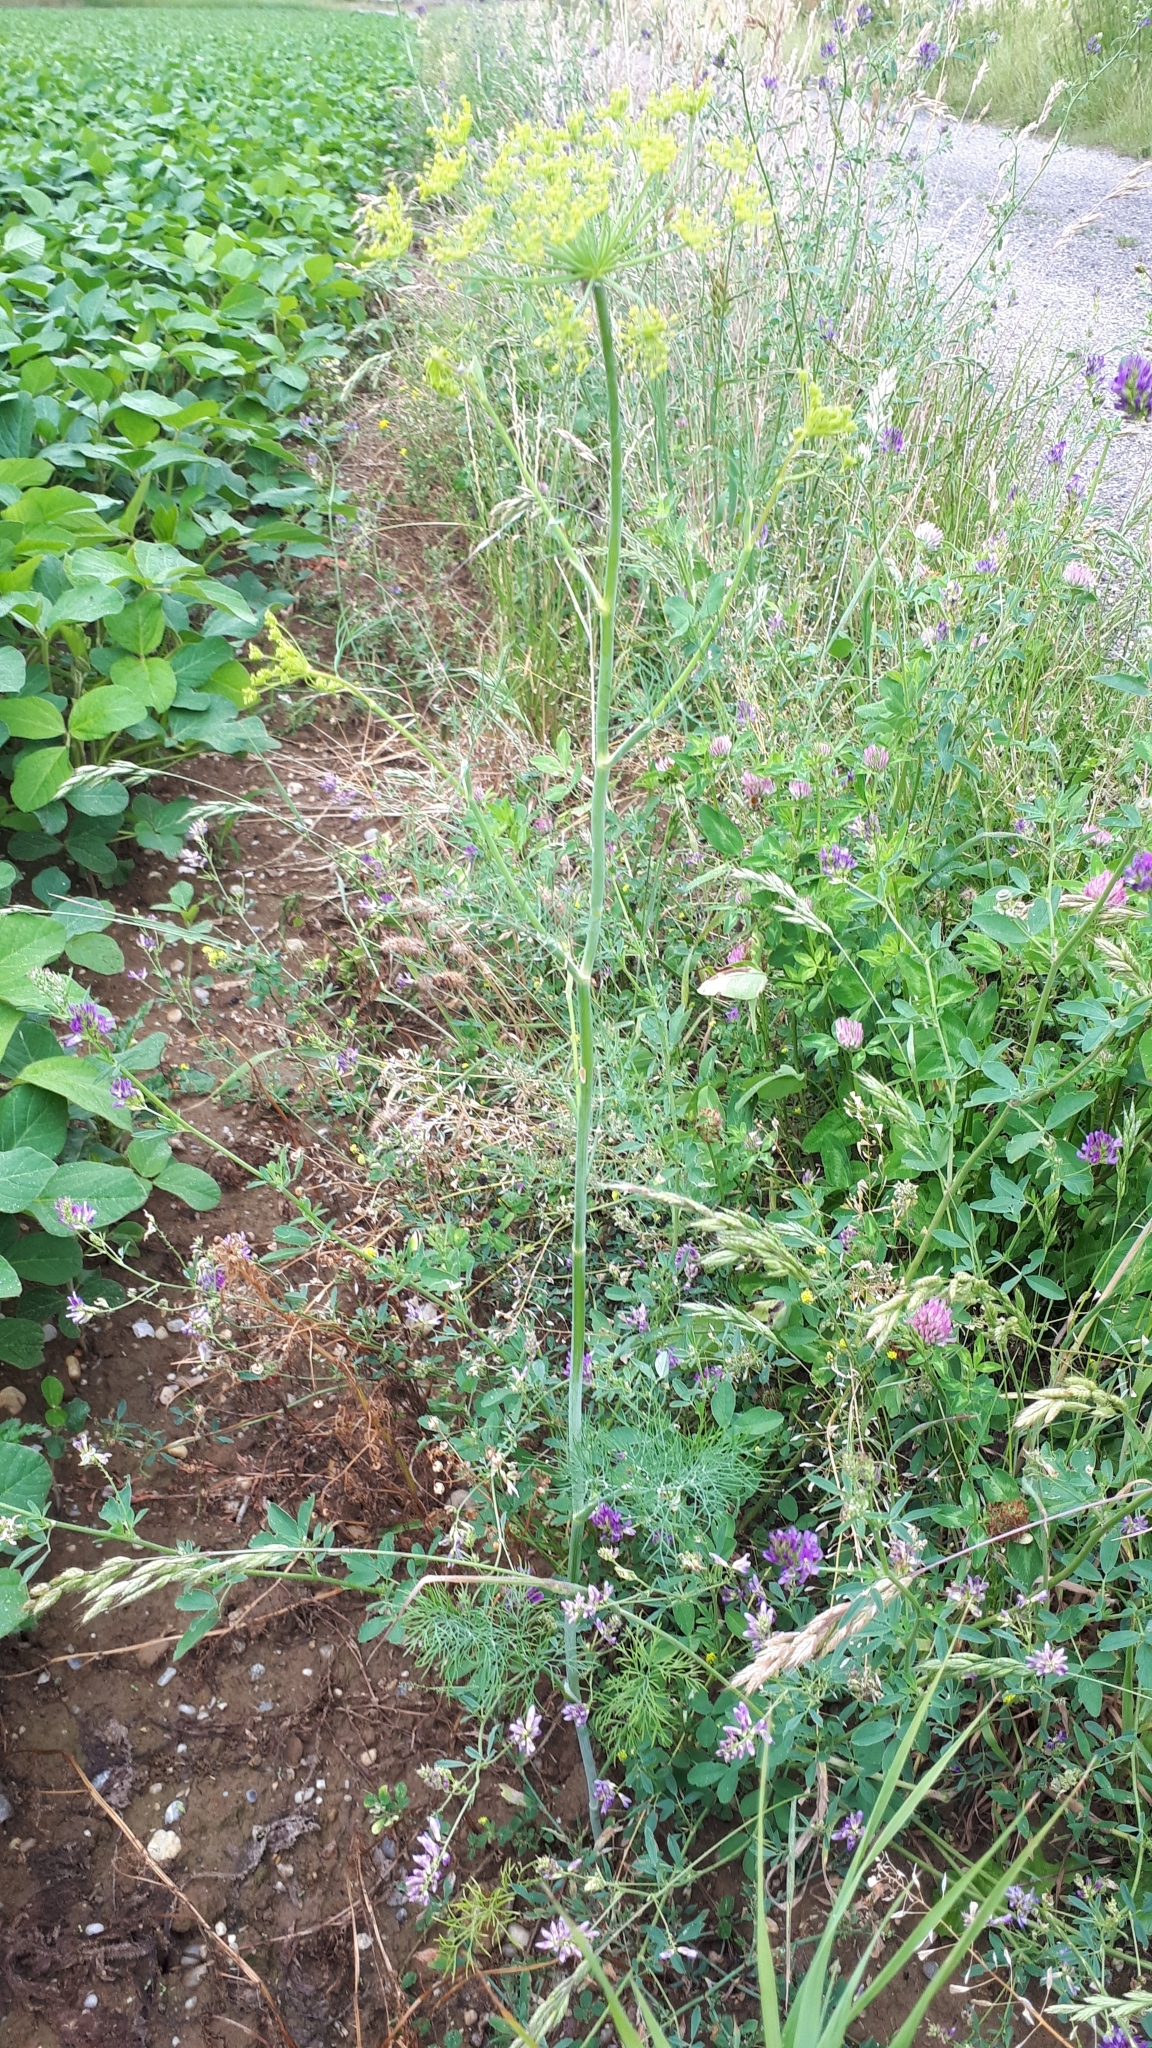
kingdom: Plantae
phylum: Tracheophyta
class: Magnoliopsida
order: Apiales
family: Apiaceae
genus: Anethum
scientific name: Anethum graveolens
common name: Dill
